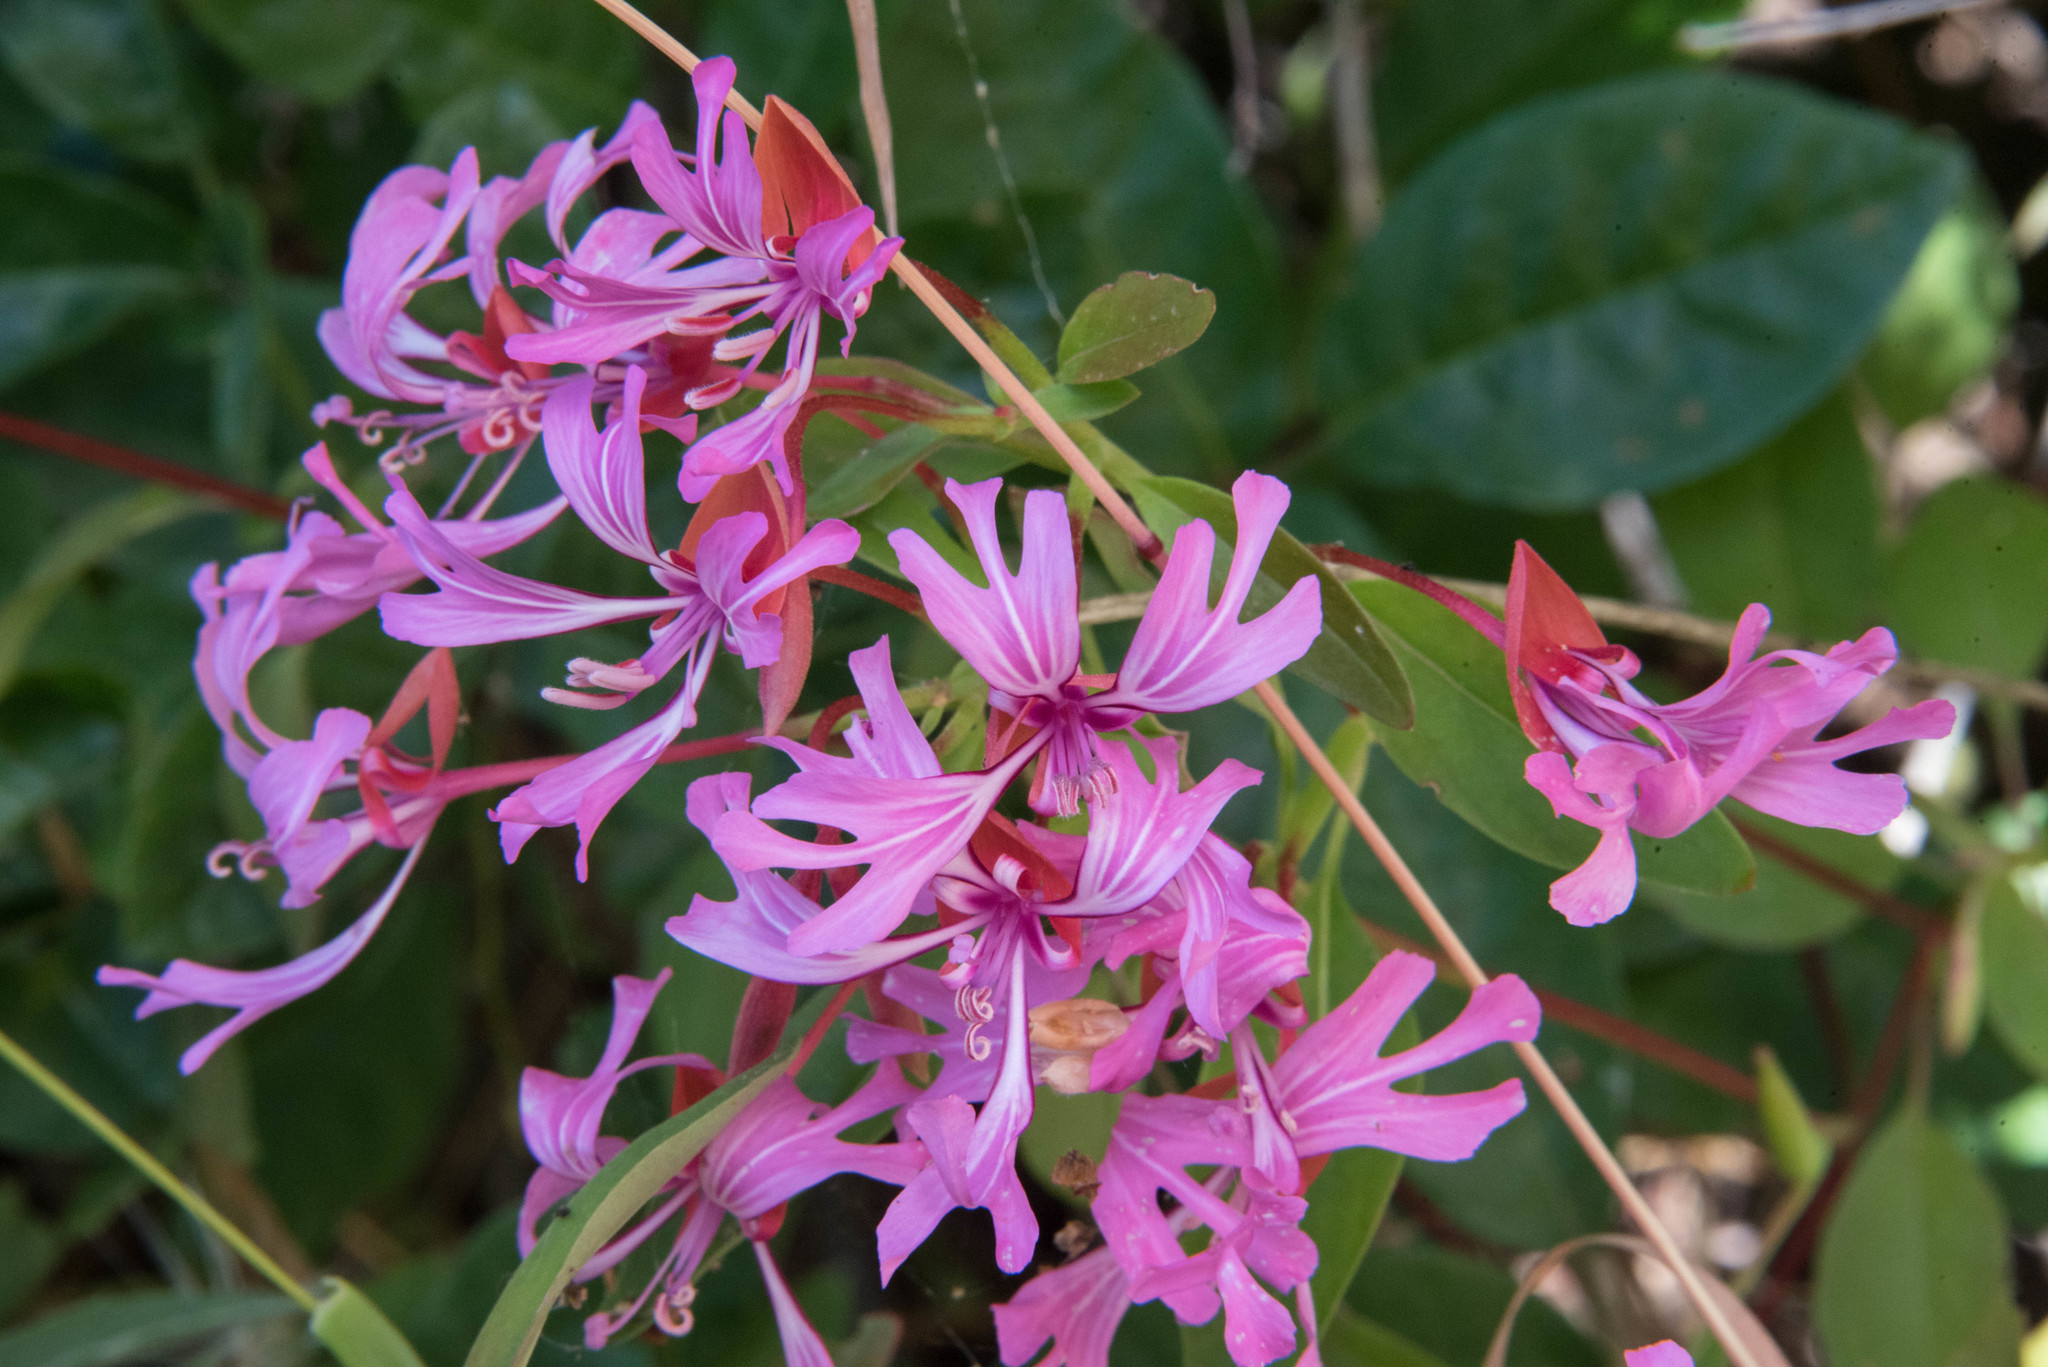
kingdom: Plantae
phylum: Tracheophyta
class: Magnoliopsida
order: Myrtales
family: Onagraceae
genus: Clarkia
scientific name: Clarkia concinna
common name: Red-ribbons
